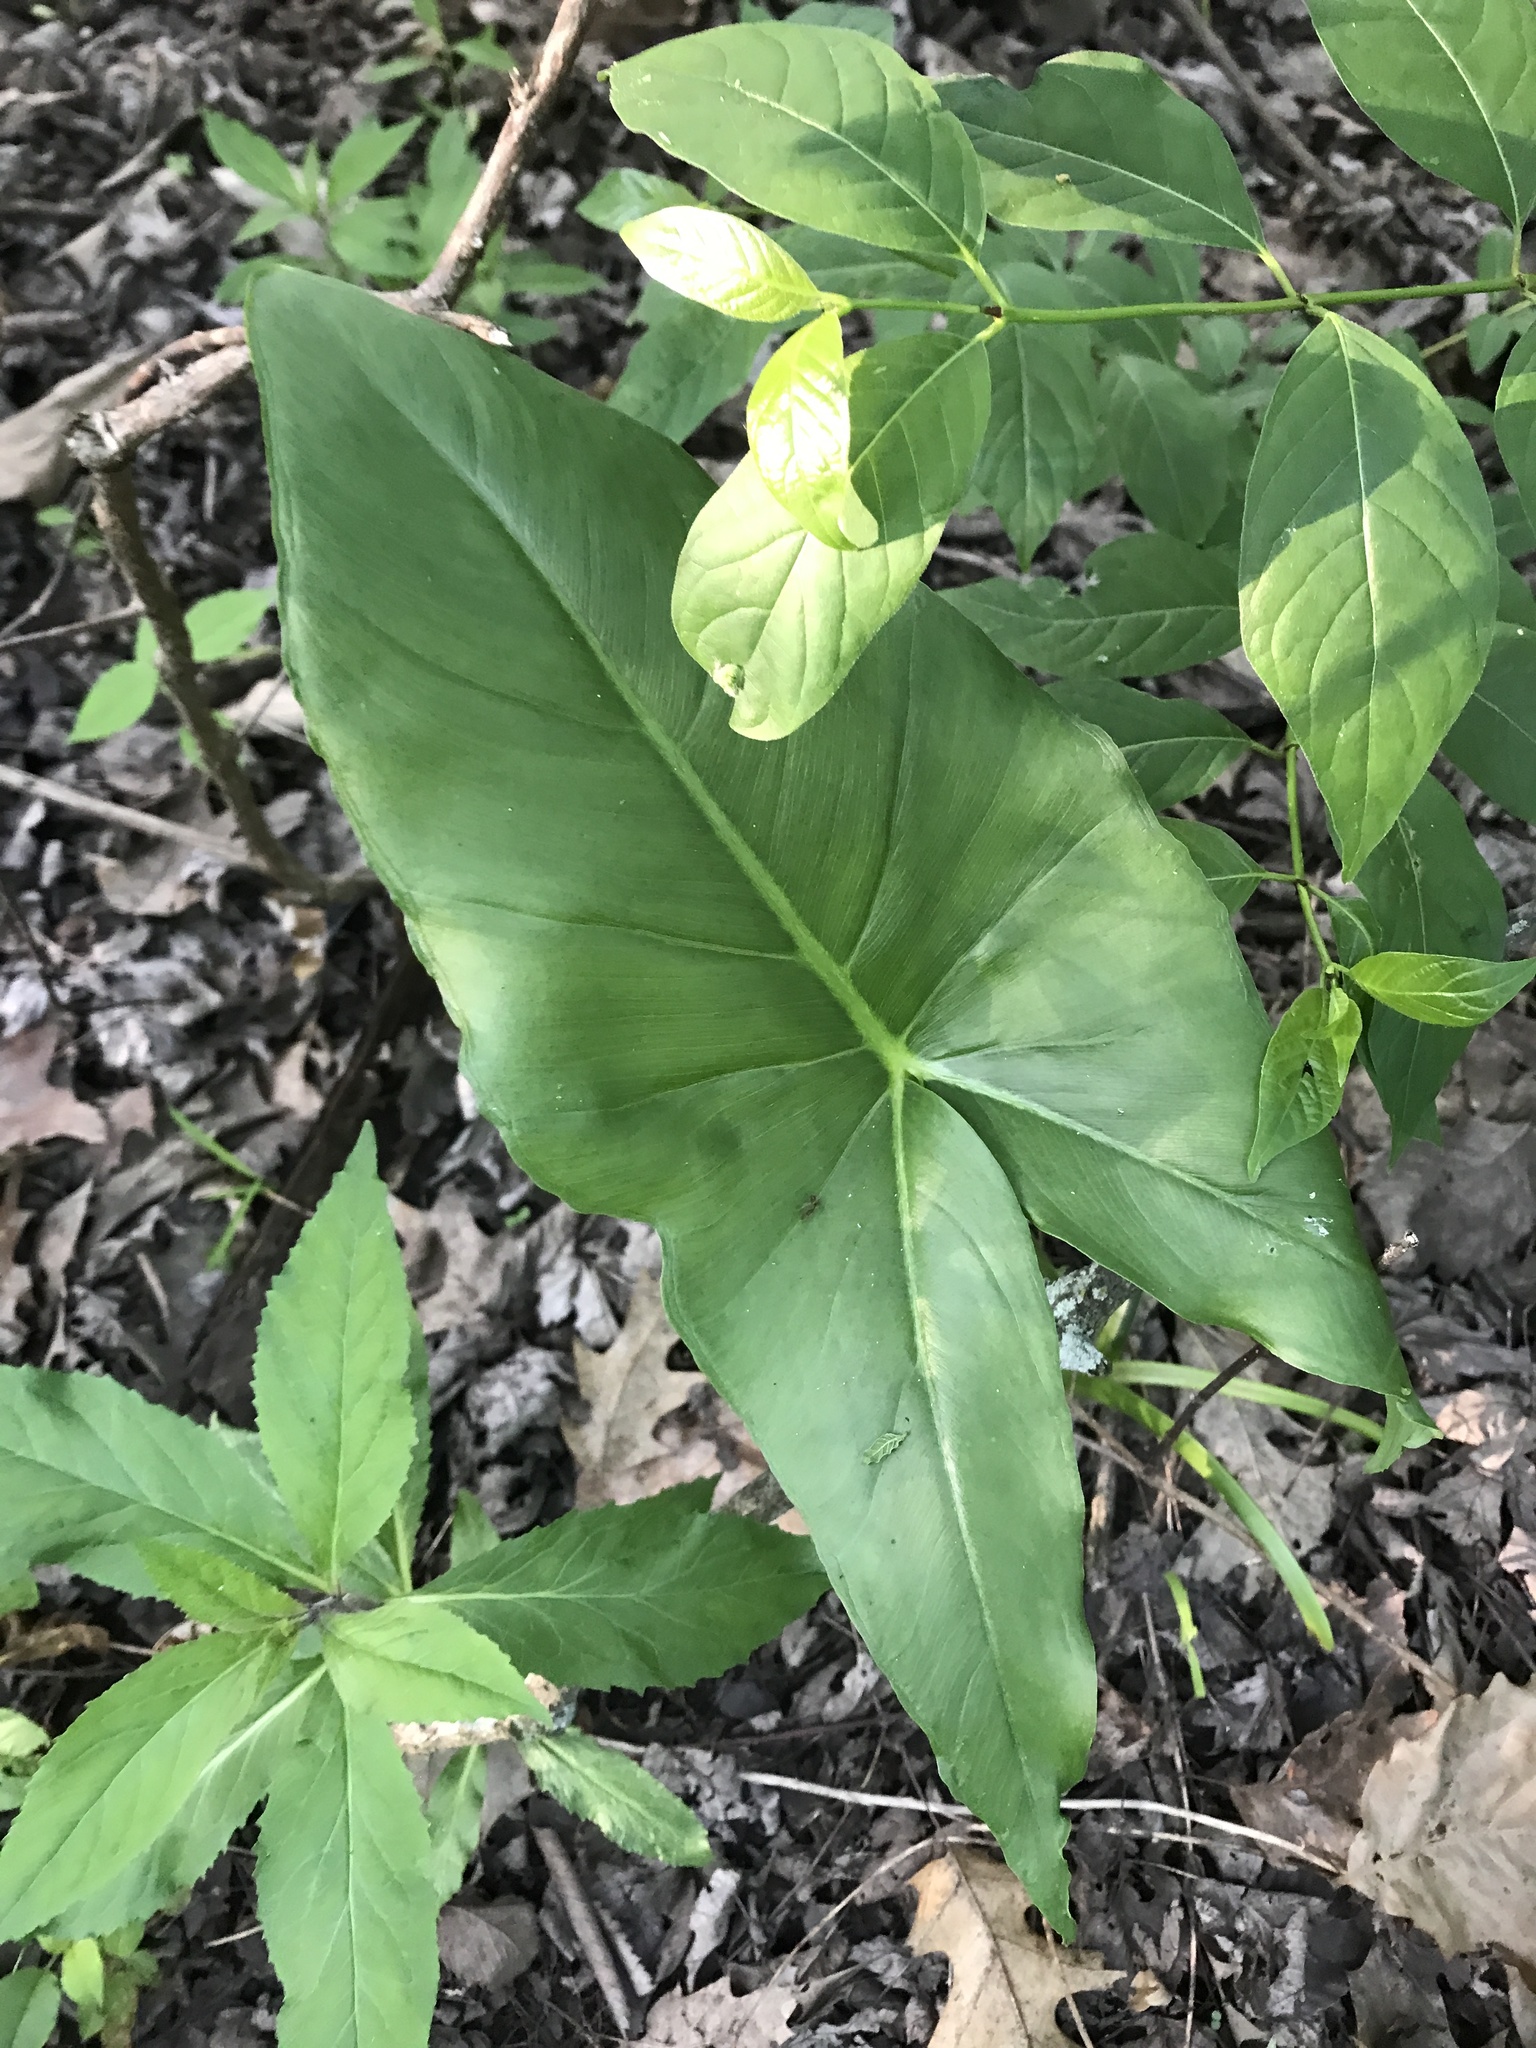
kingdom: Plantae
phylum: Tracheophyta
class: Liliopsida
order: Alismatales
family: Araceae
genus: Peltandra
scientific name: Peltandra virginica
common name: Arrow arum
